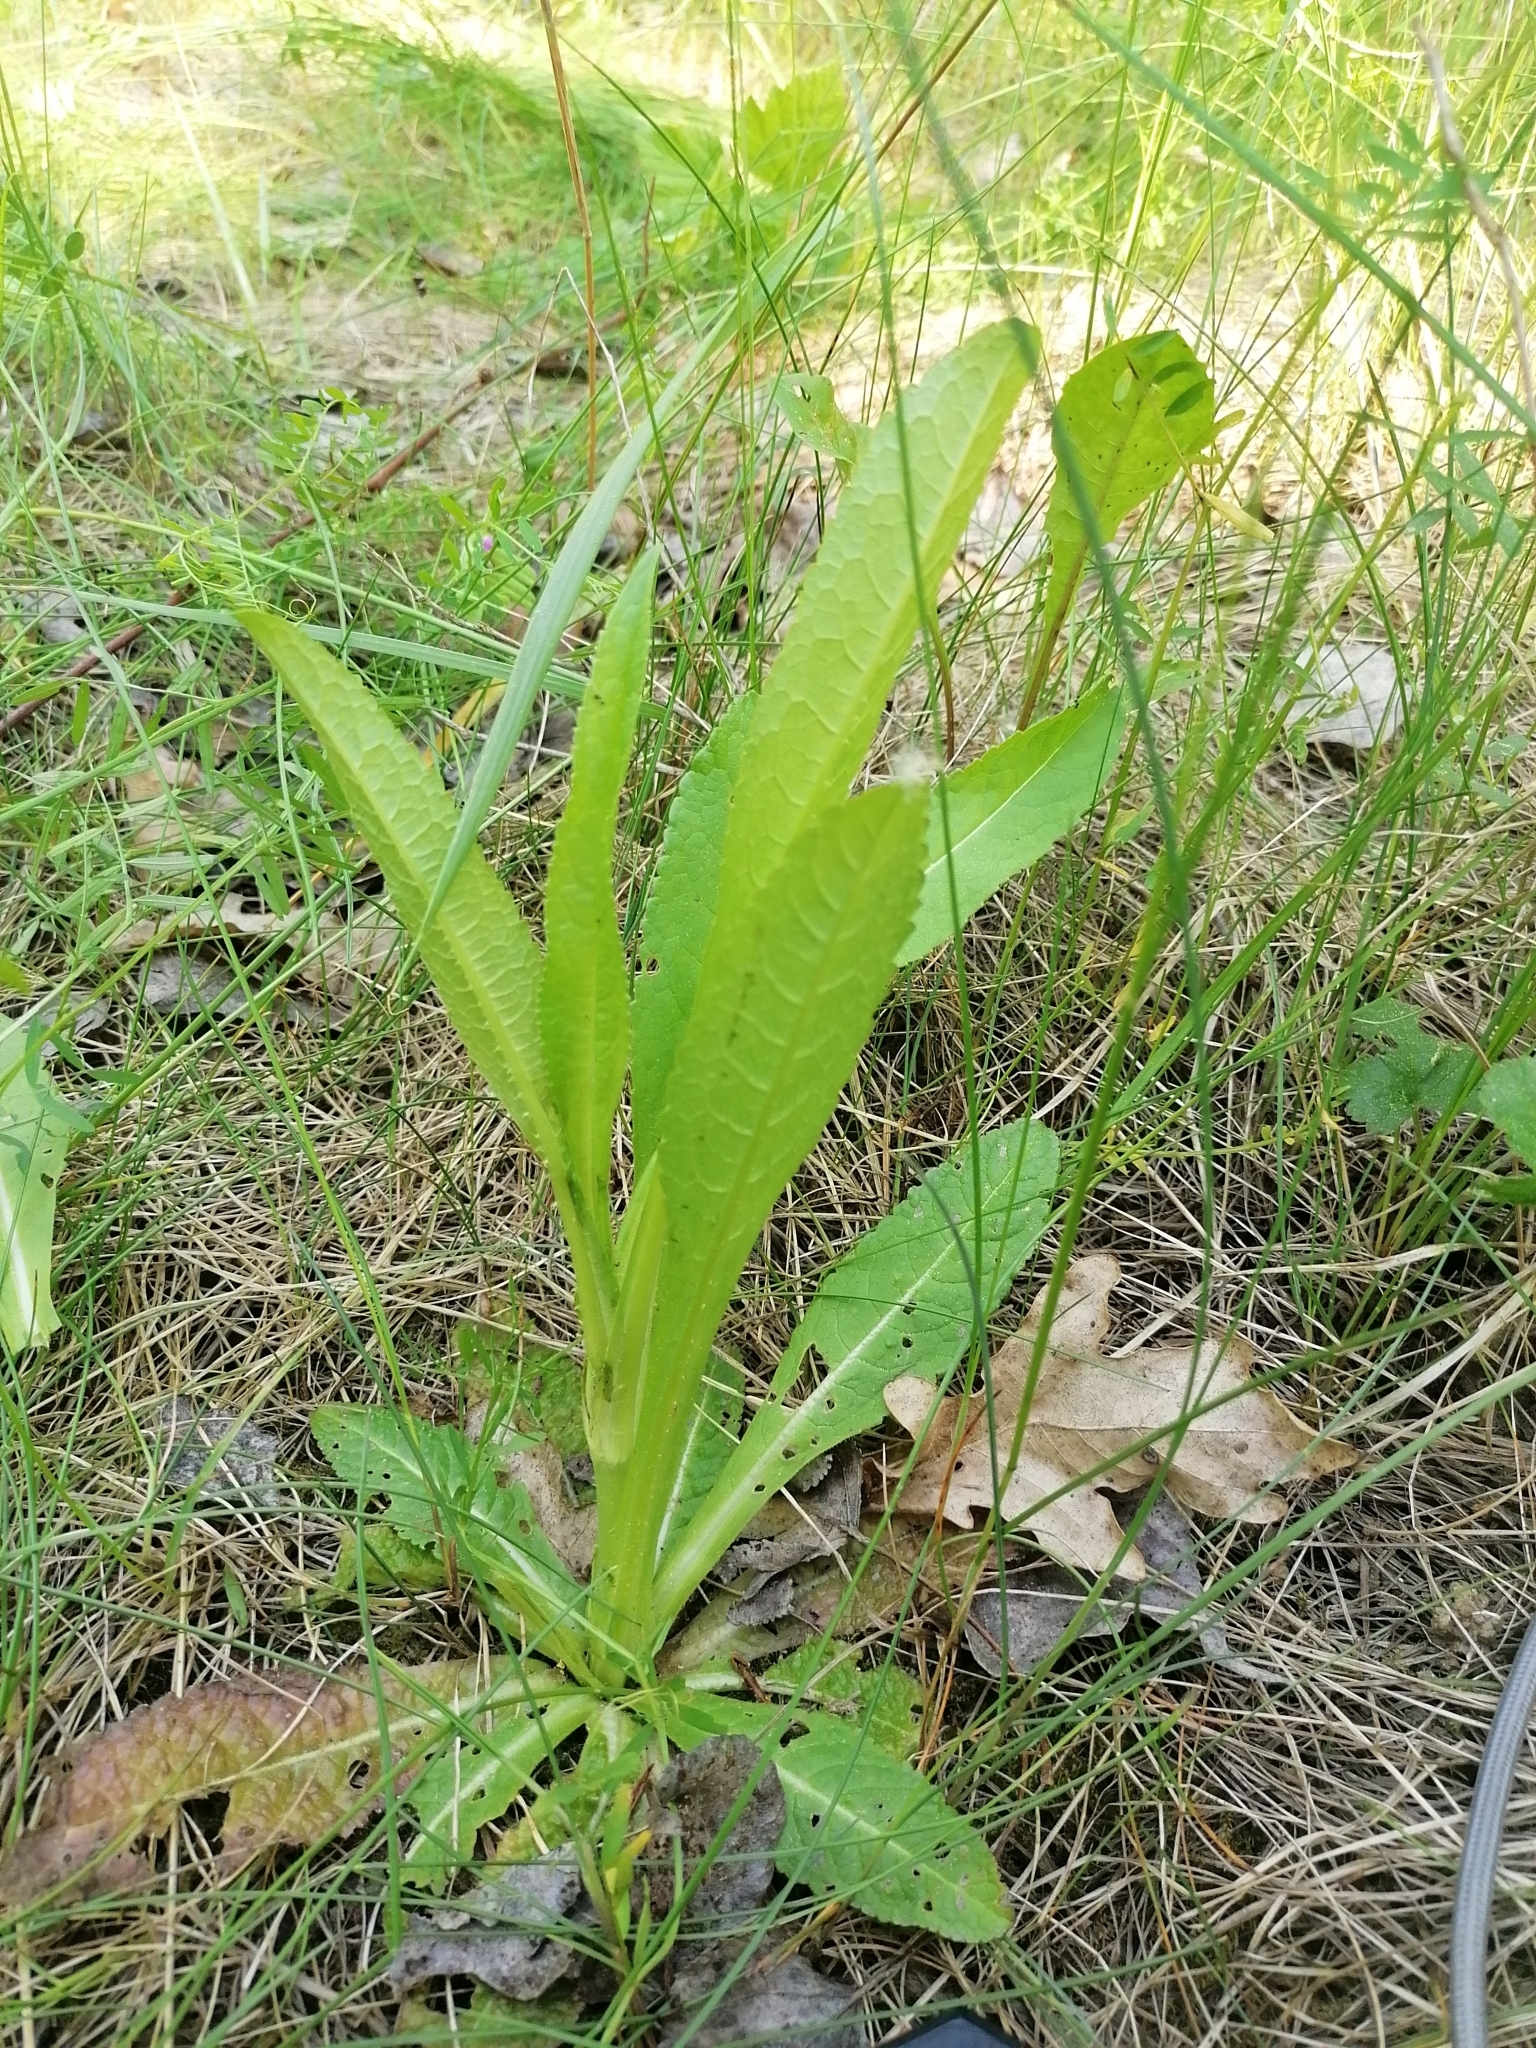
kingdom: Plantae
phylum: Tracheophyta
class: Magnoliopsida
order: Dipsacales
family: Caprifoliaceae
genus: Dipsacus
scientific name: Dipsacus fullonum
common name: Teasel
